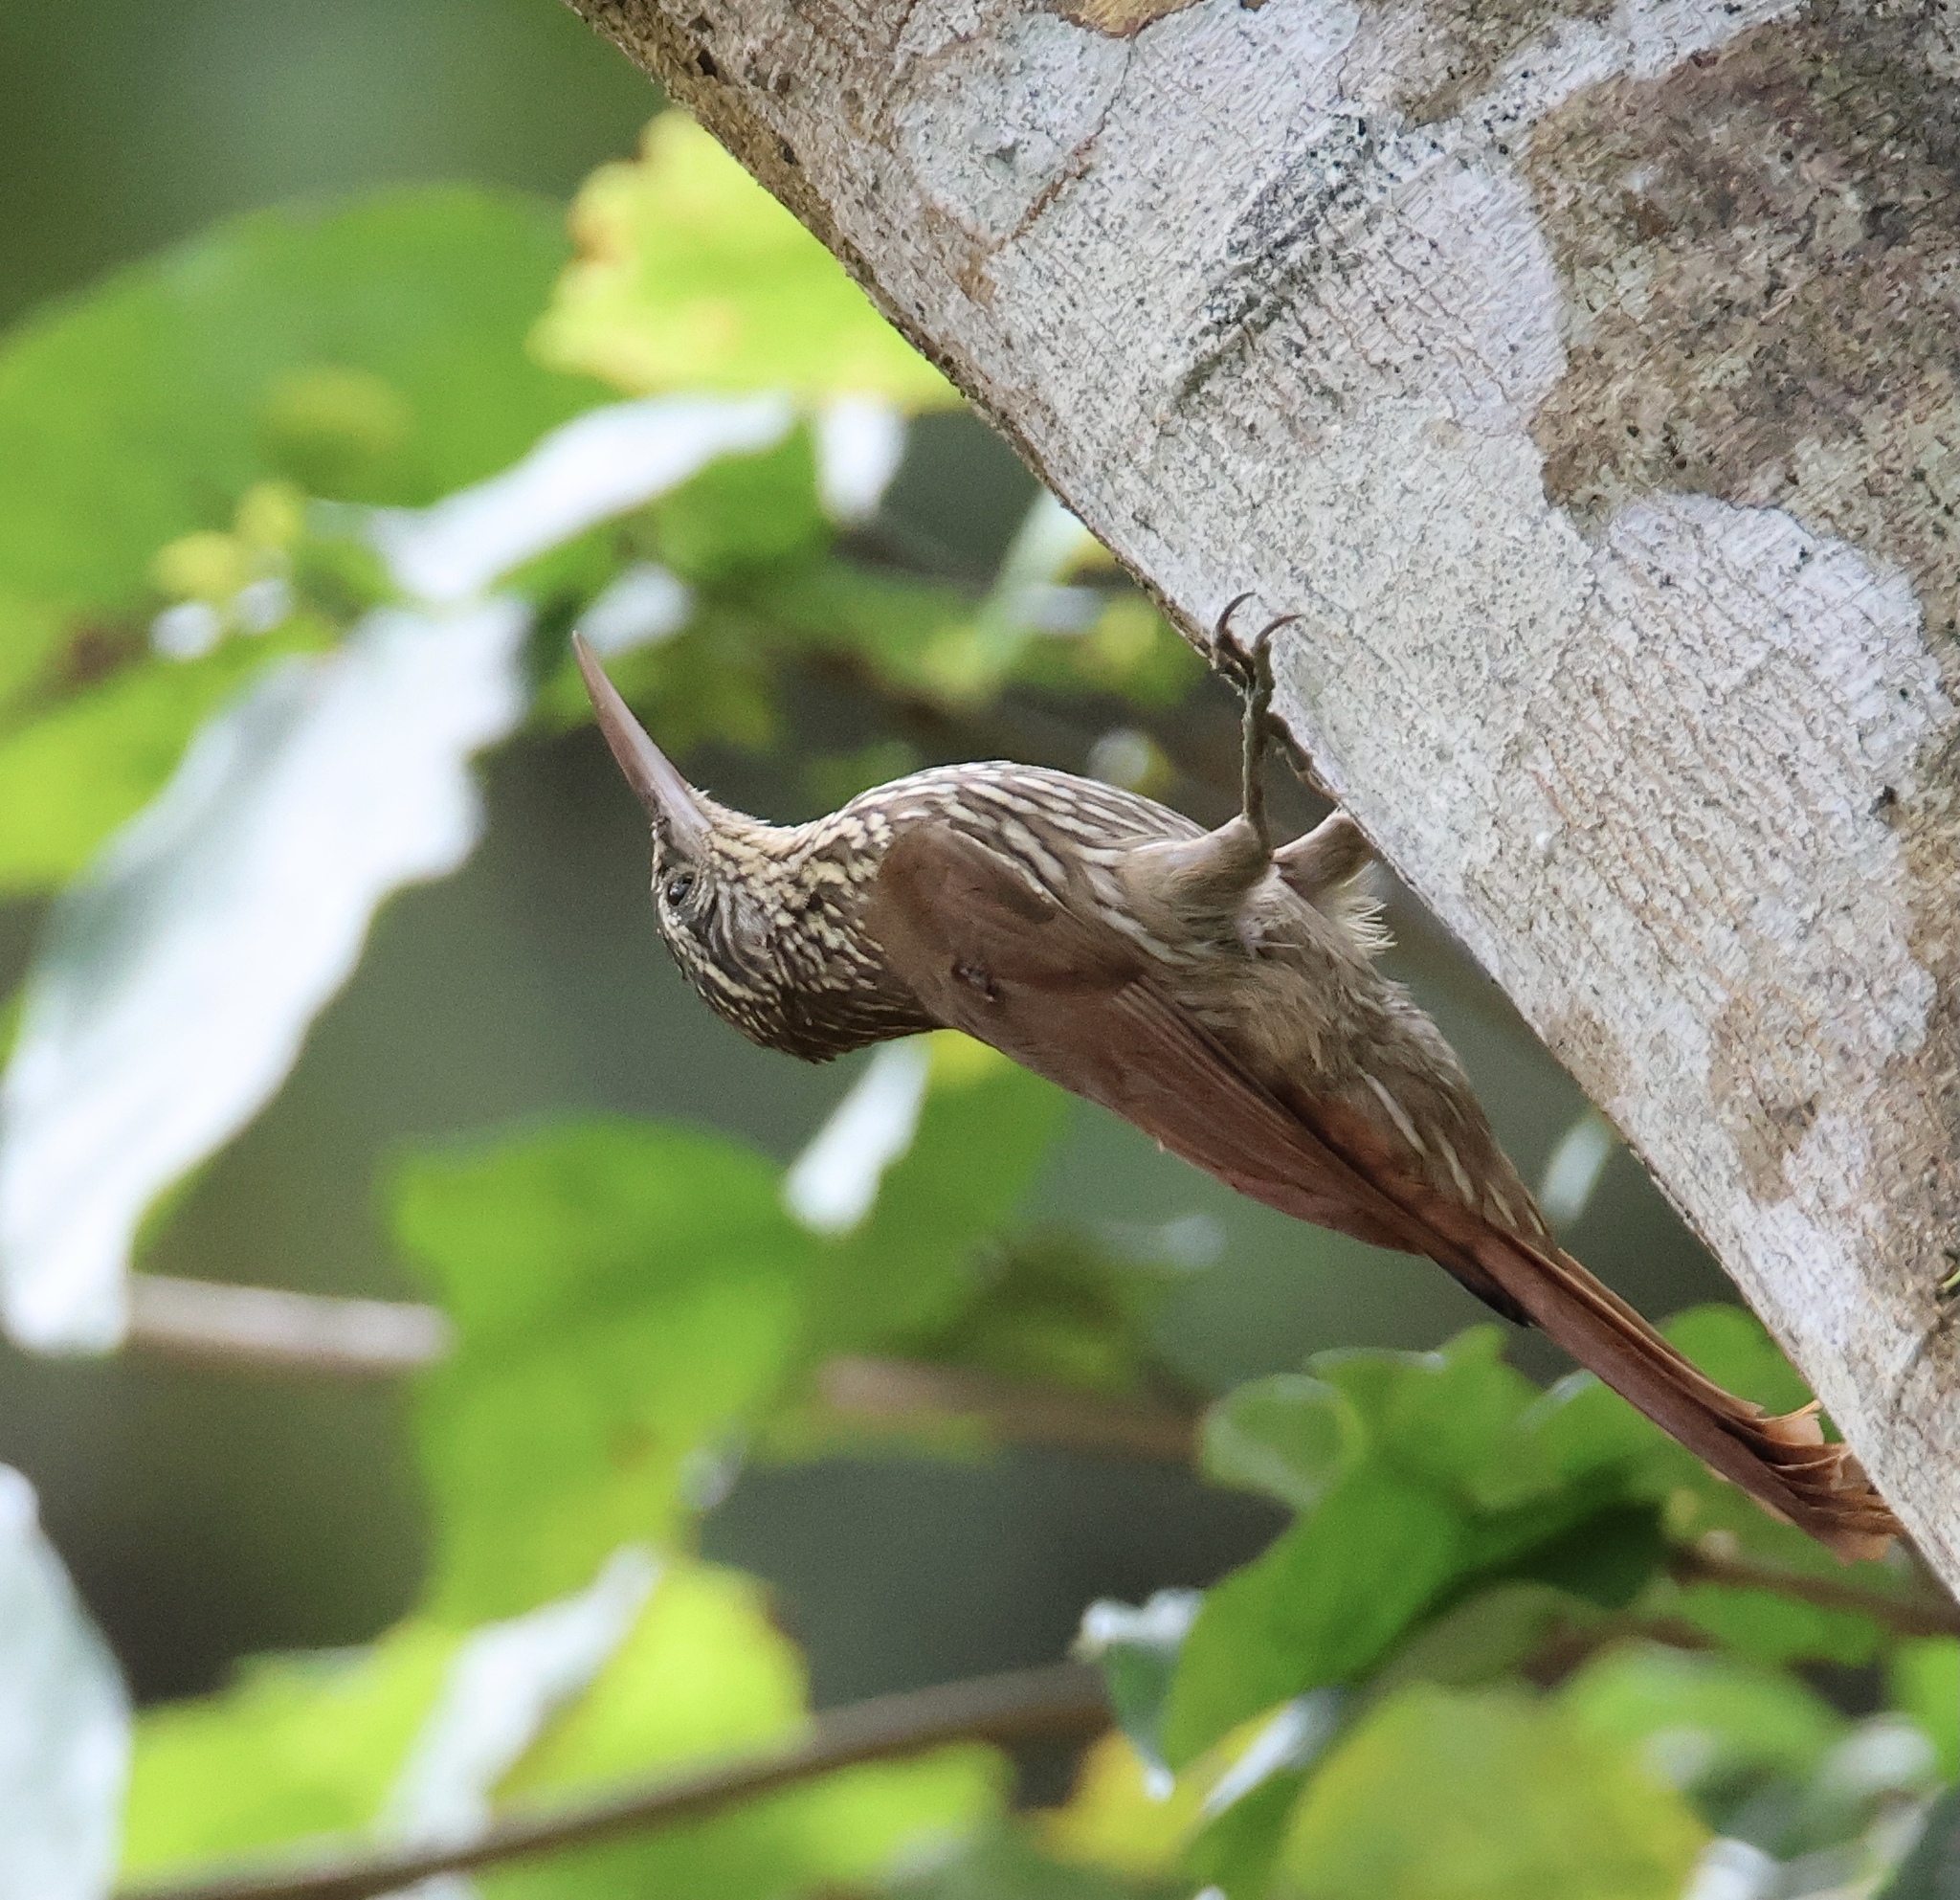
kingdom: Animalia
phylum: Chordata
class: Aves
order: Passeriformes
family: Furnariidae
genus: Lepidocolaptes
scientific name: Lepidocolaptes souleyetii
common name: Streak-headed woodcreeper
